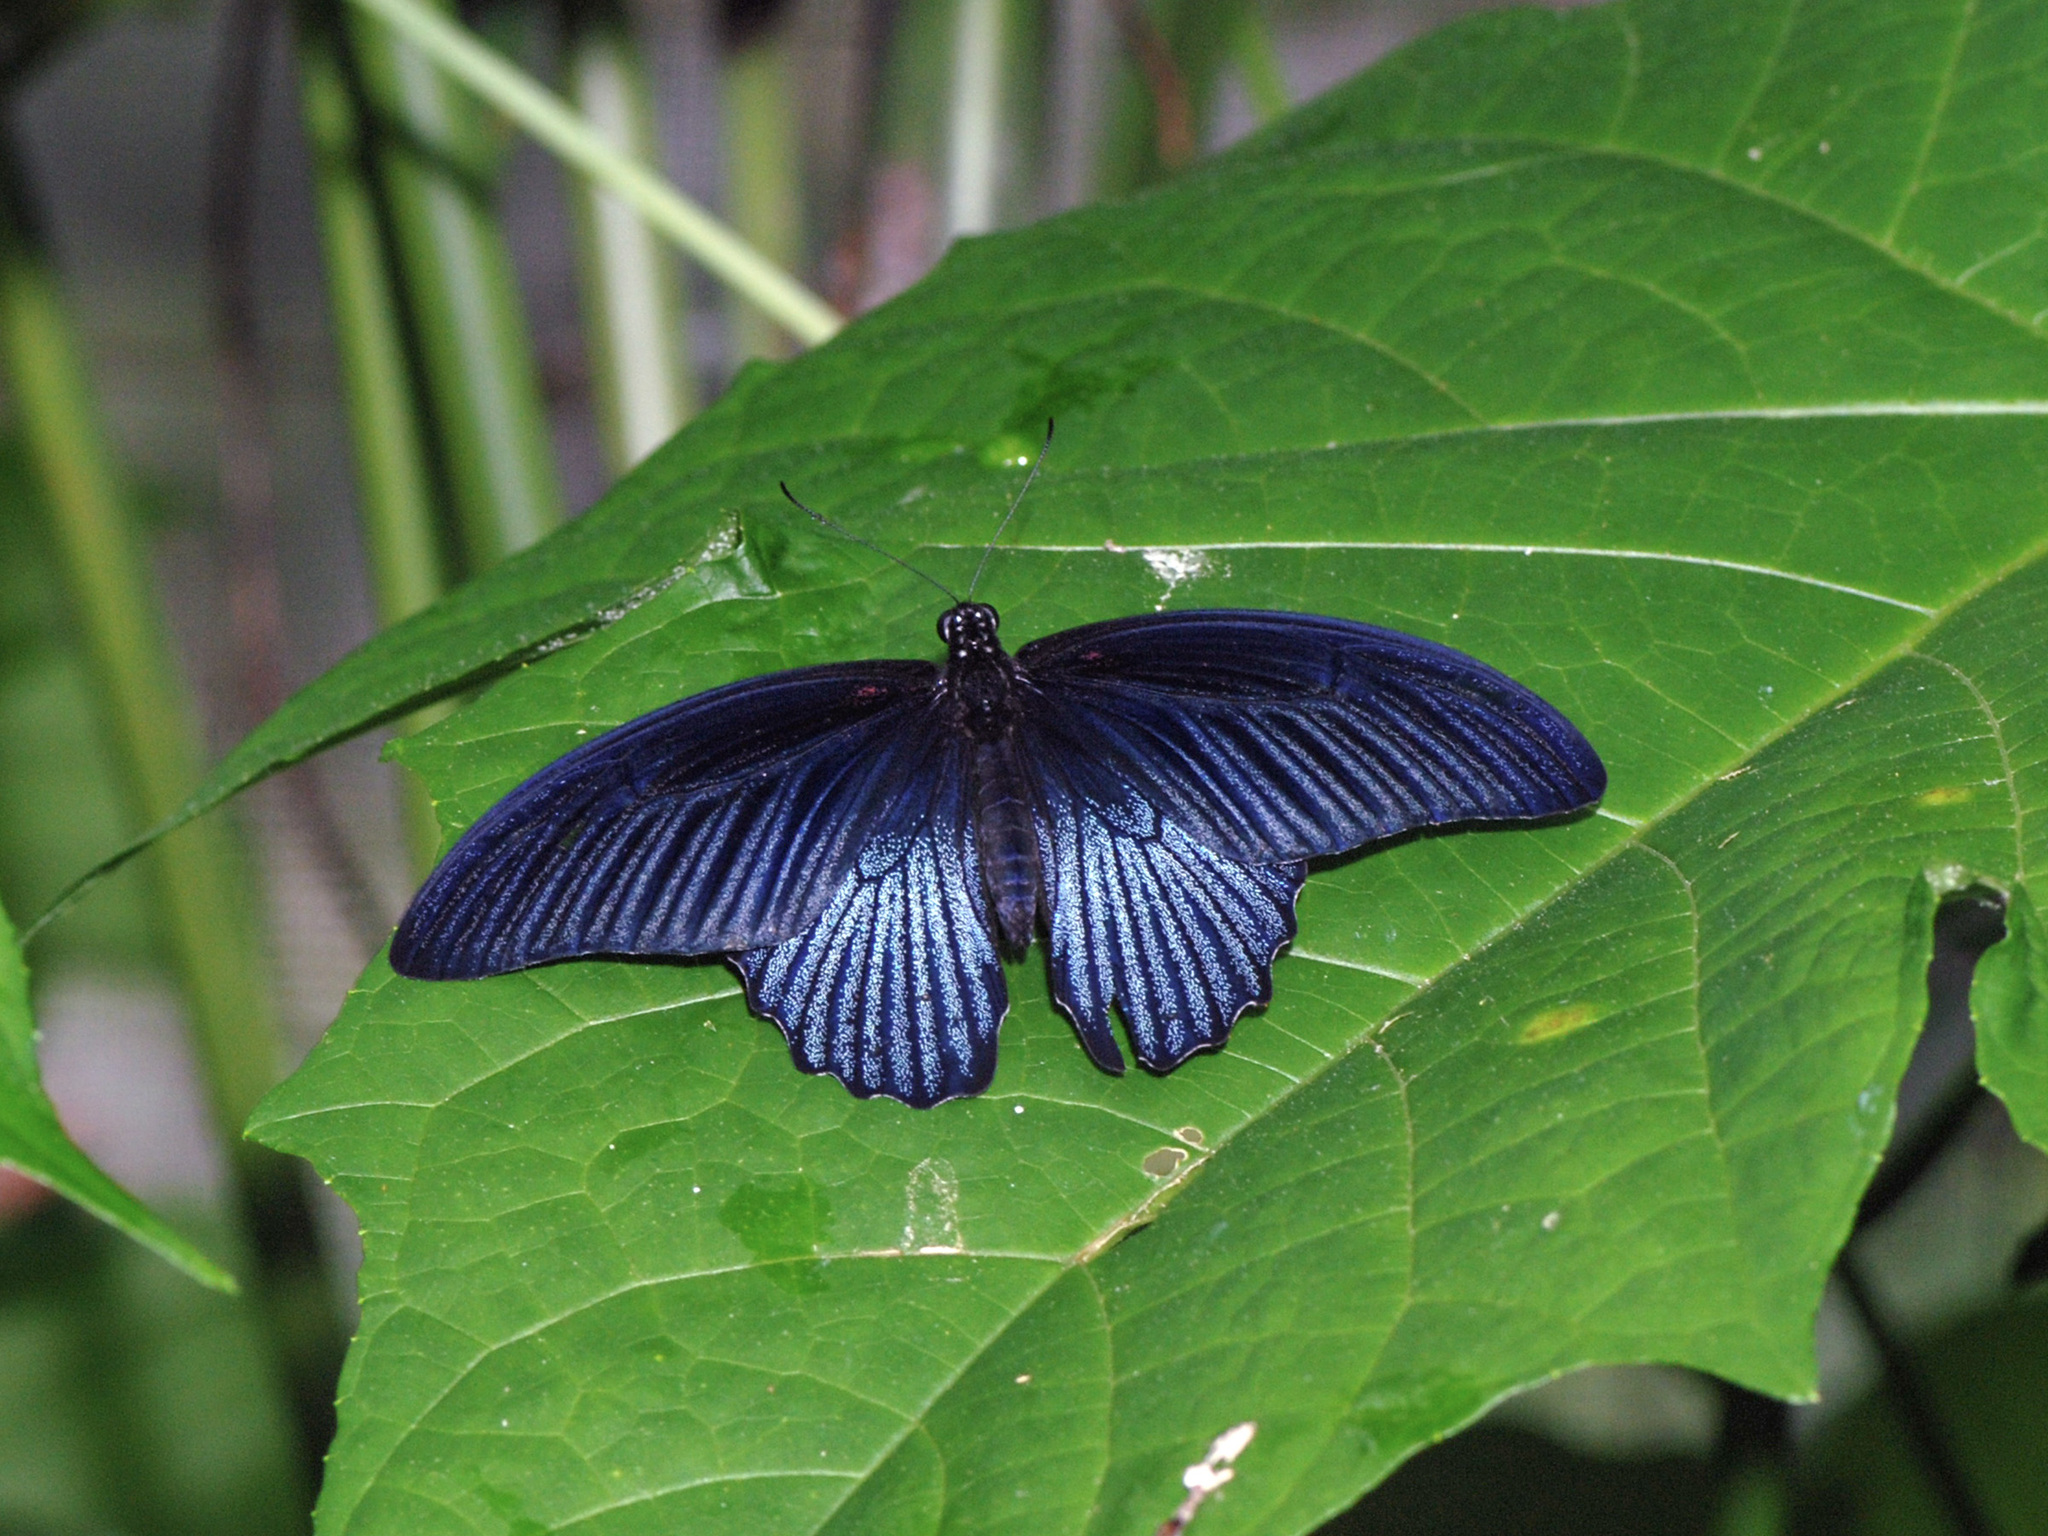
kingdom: Animalia
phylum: Arthropoda
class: Insecta
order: Lepidoptera
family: Papilionidae
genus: Papilio
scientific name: Papilio memnon
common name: Great mormon
